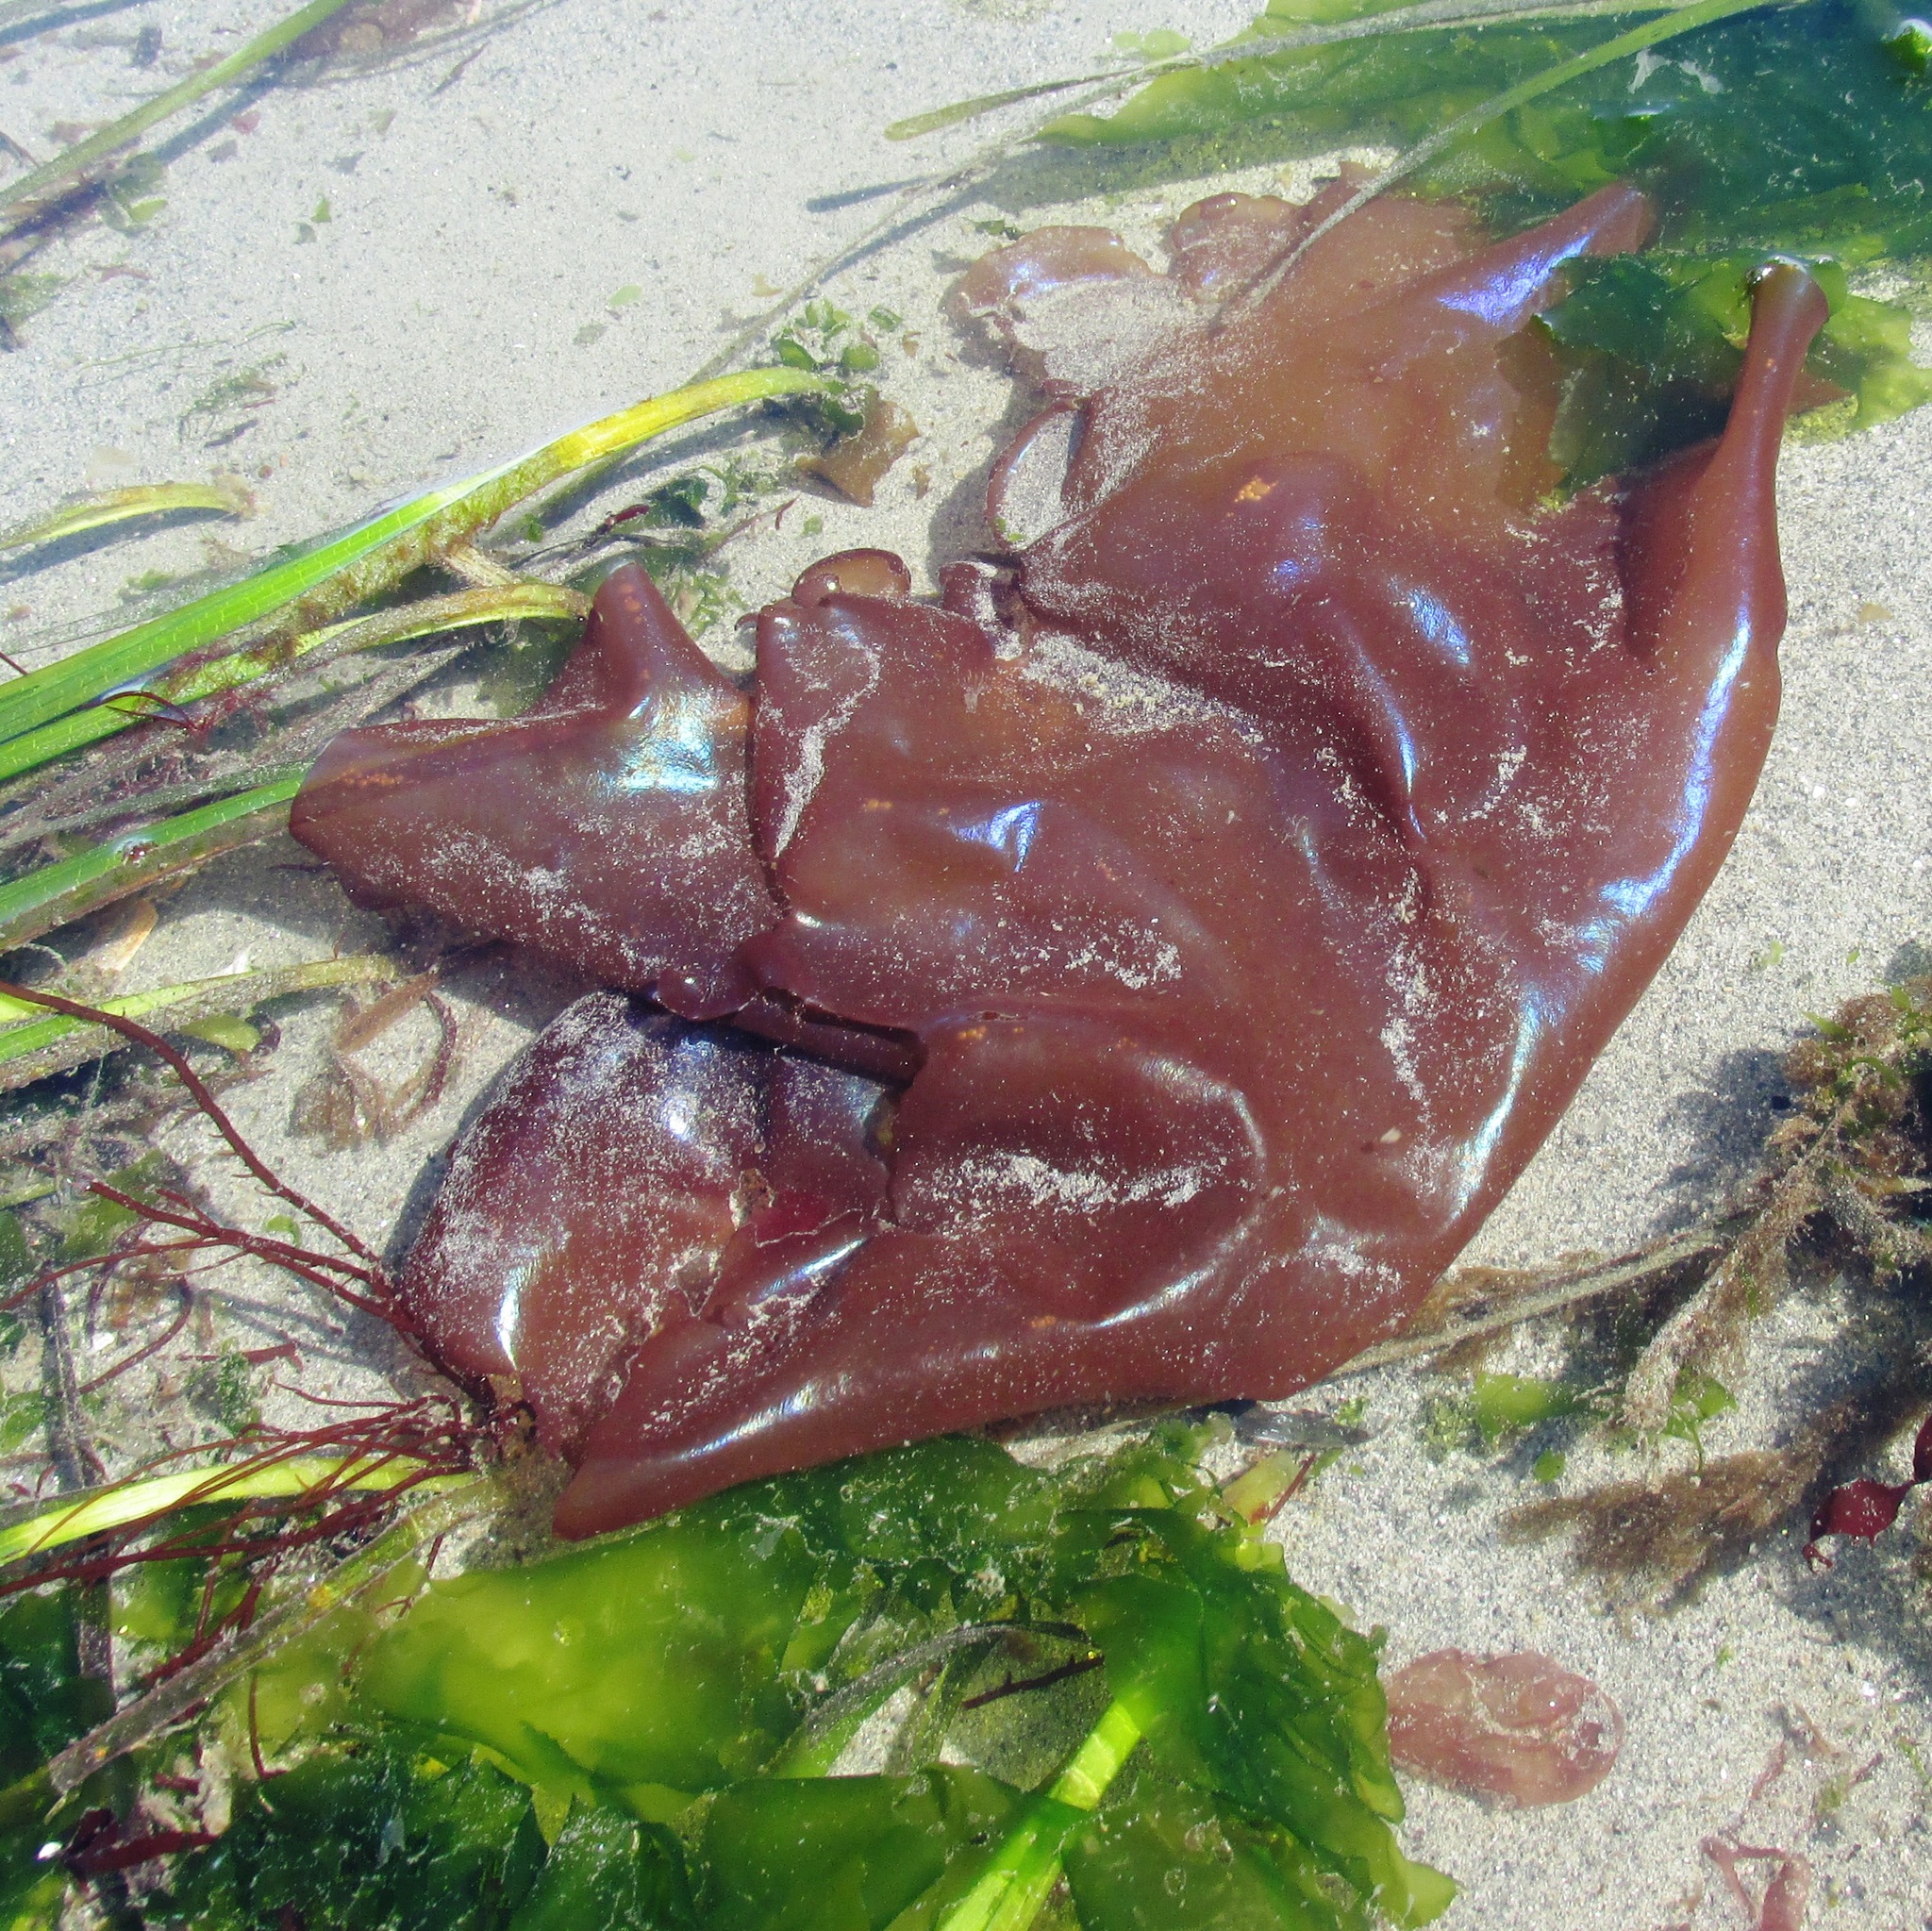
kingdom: Plantae
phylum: Rhodophyta
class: Florideophyceae
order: Gigartinales
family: Gigartinaceae
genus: Mazzaella
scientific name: Mazzaella splendens
